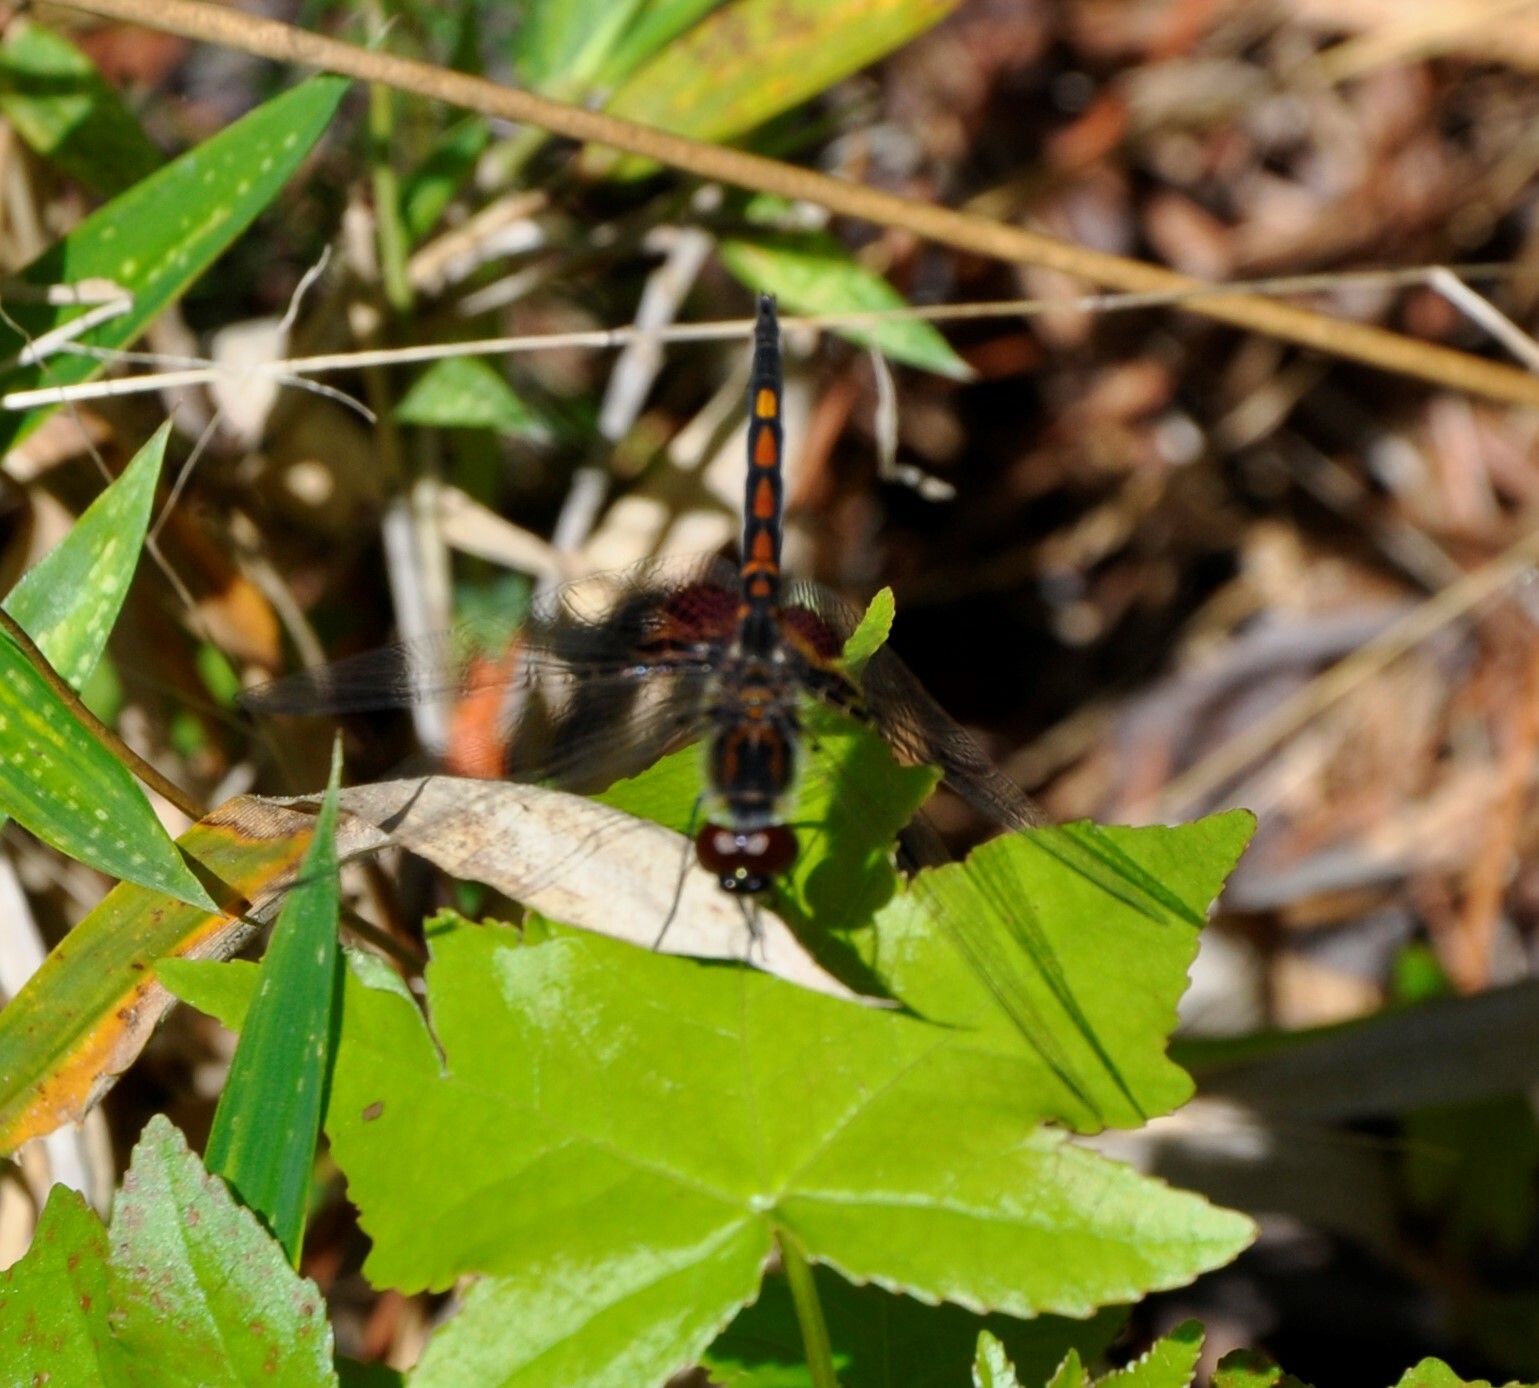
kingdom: Animalia
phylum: Arthropoda
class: Insecta
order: Odonata
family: Libellulidae
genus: Celithemis
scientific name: Celithemis ornata
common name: Ornate pennant
